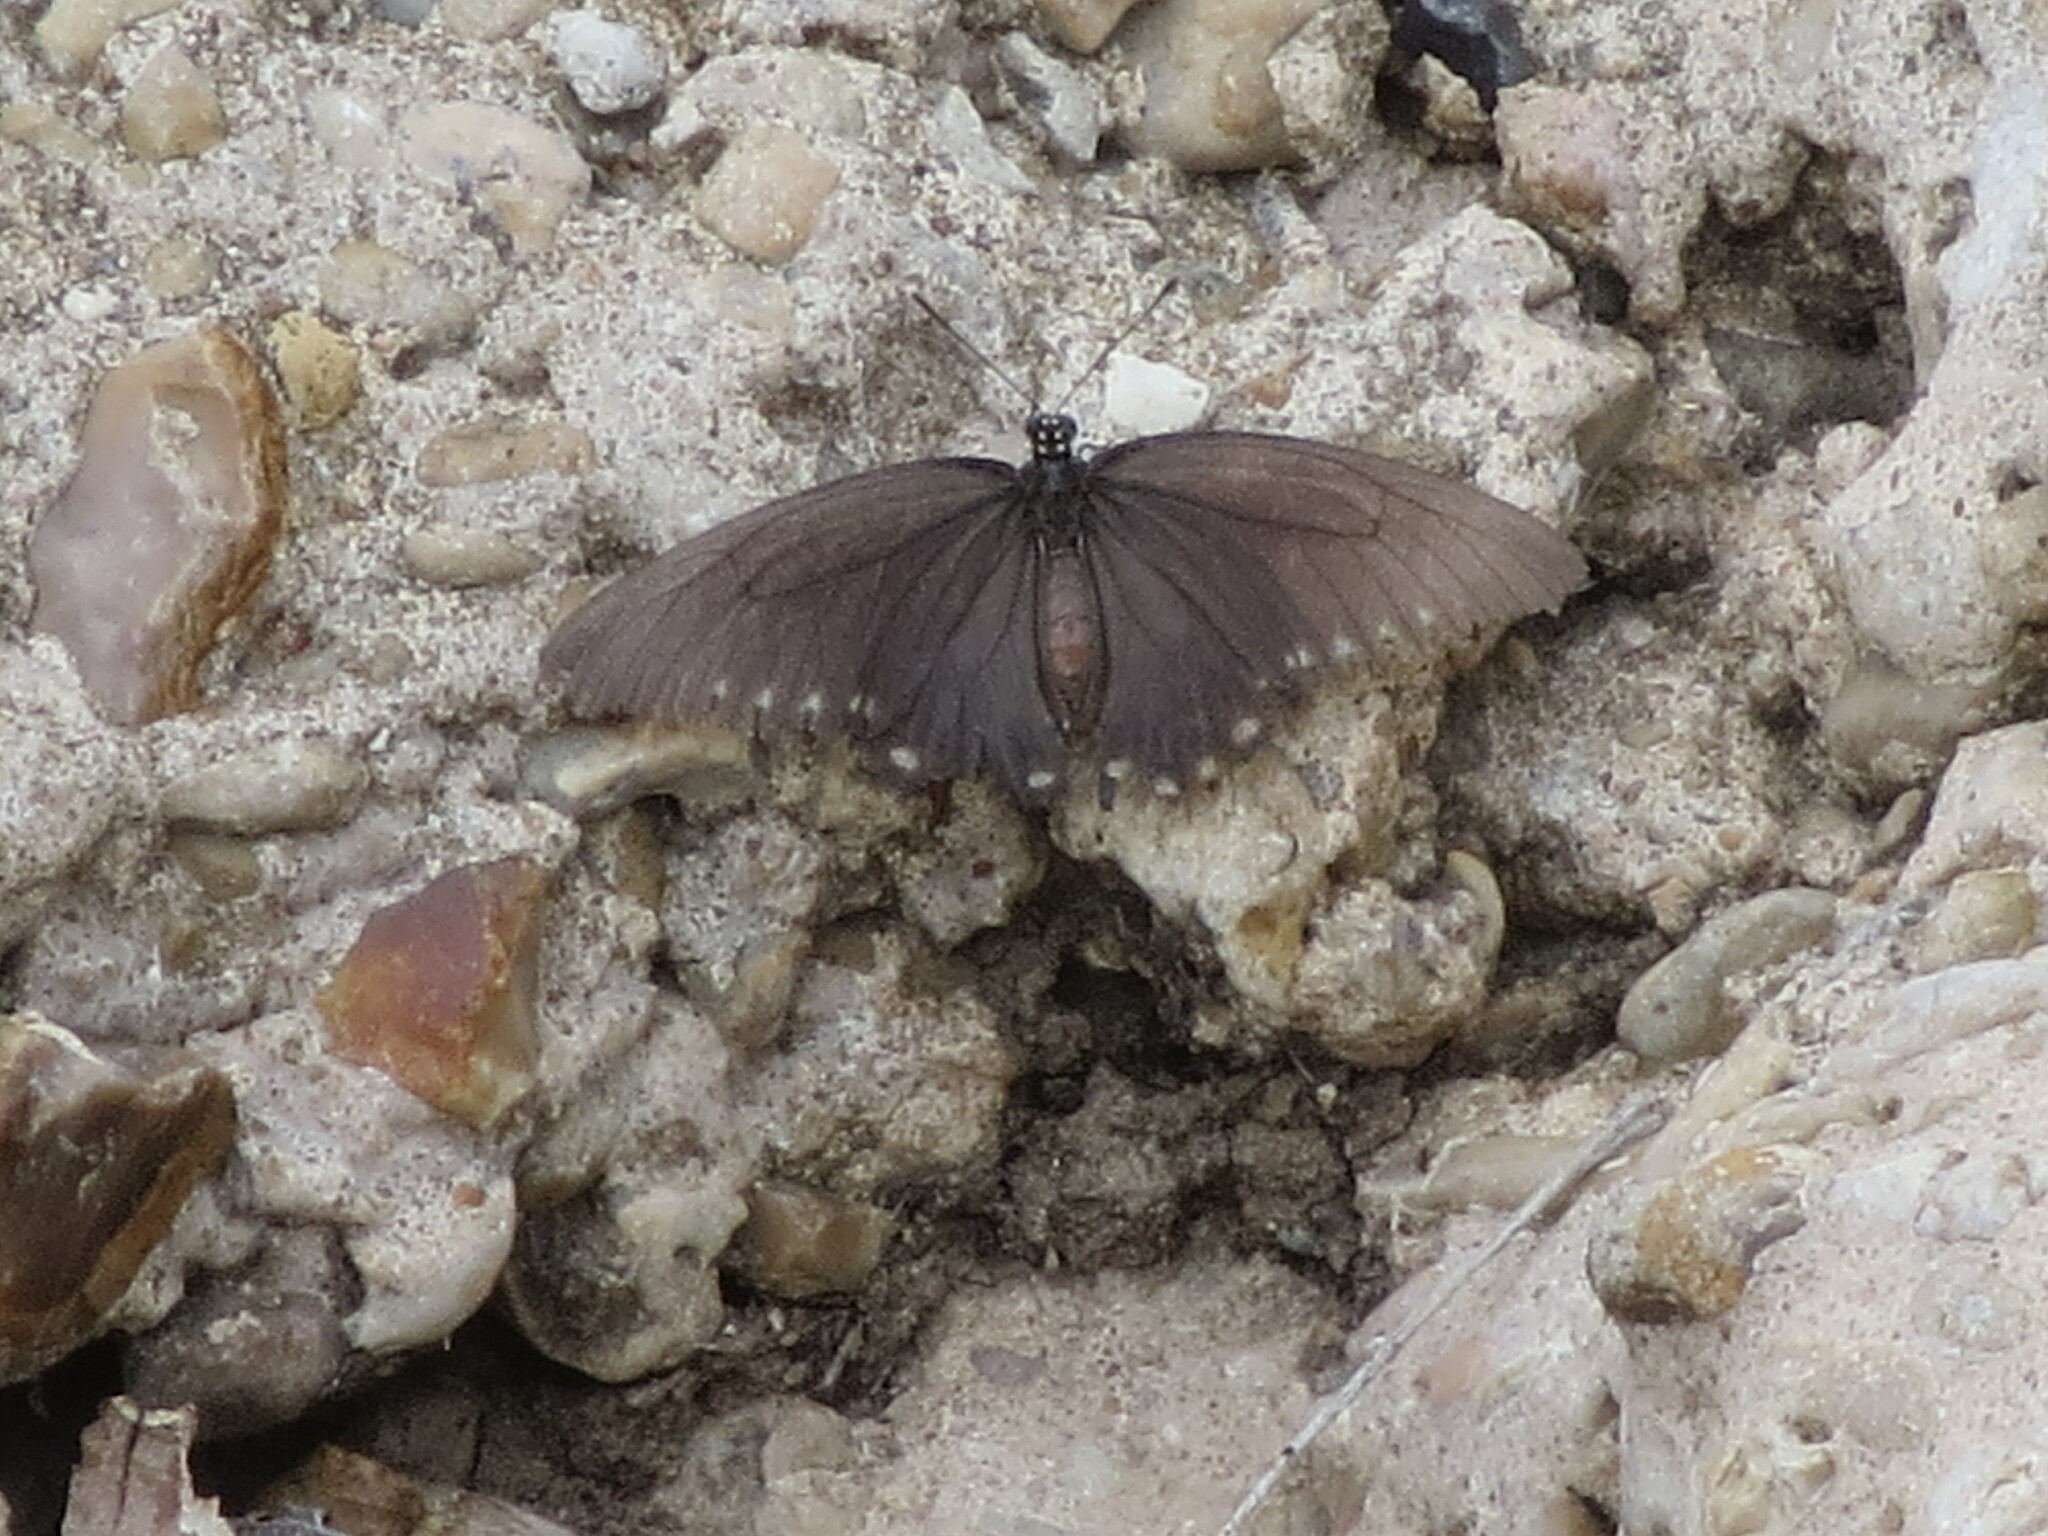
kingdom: Animalia
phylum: Arthropoda
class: Insecta
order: Lepidoptera
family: Papilionidae
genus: Battus
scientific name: Battus philenor
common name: Pipevine swallowtail
